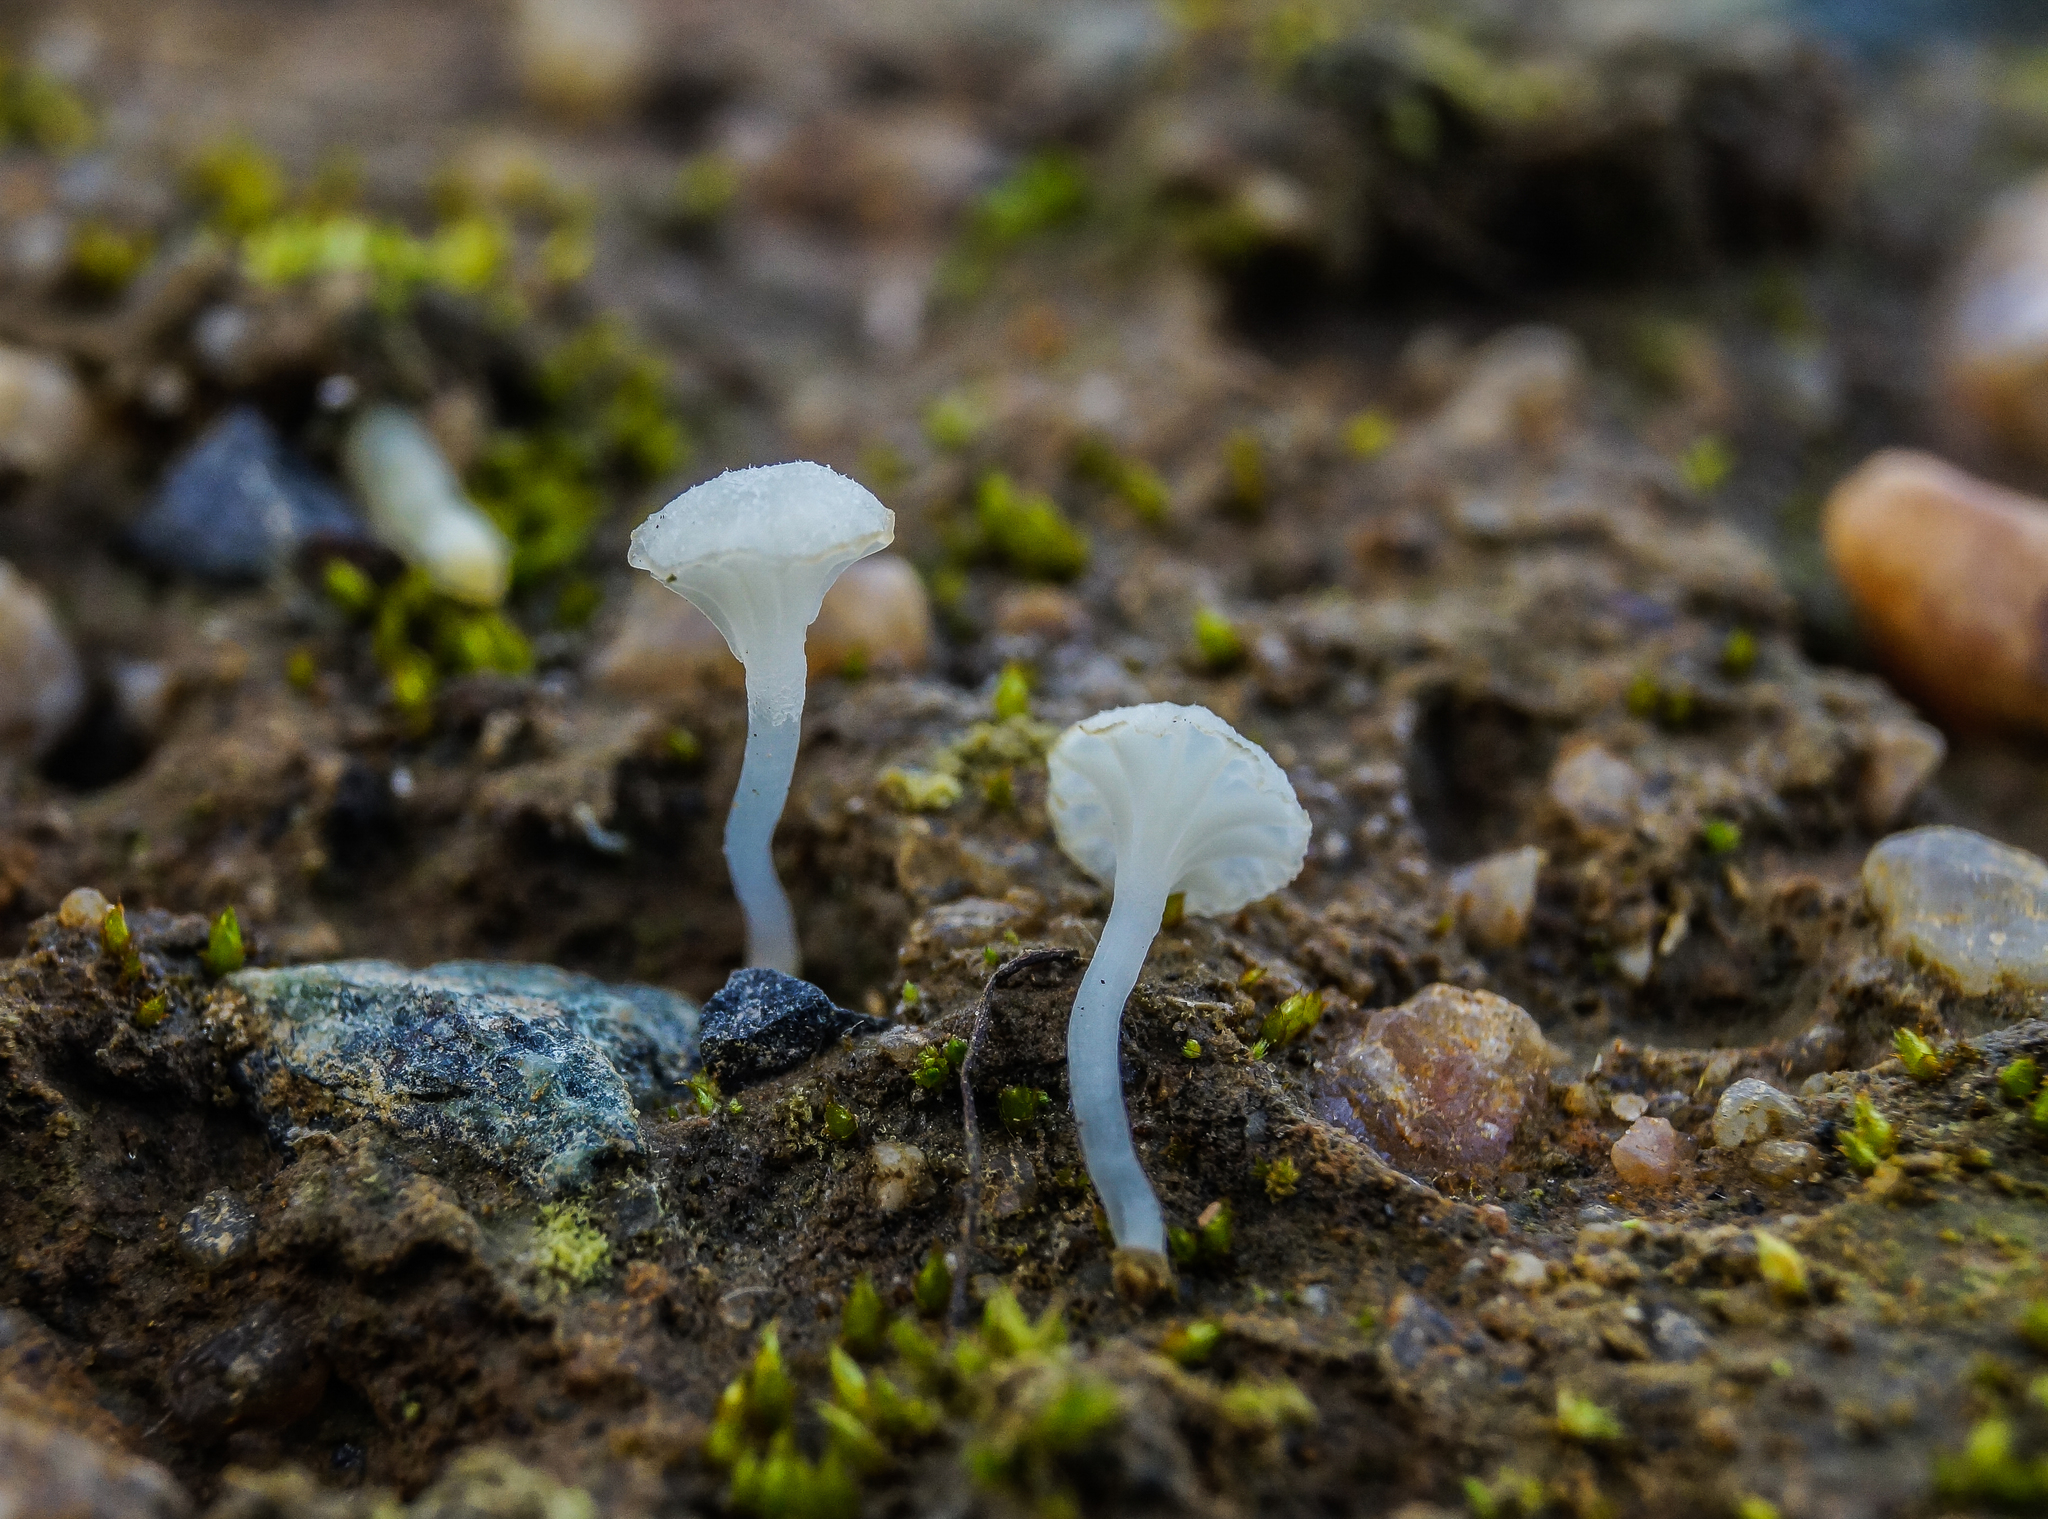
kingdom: Fungi
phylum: Basidiomycota
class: Agaricomycetes
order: Agaricales
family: Mycenaceae
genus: Hemimycena
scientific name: Hemimycena ignobilis
